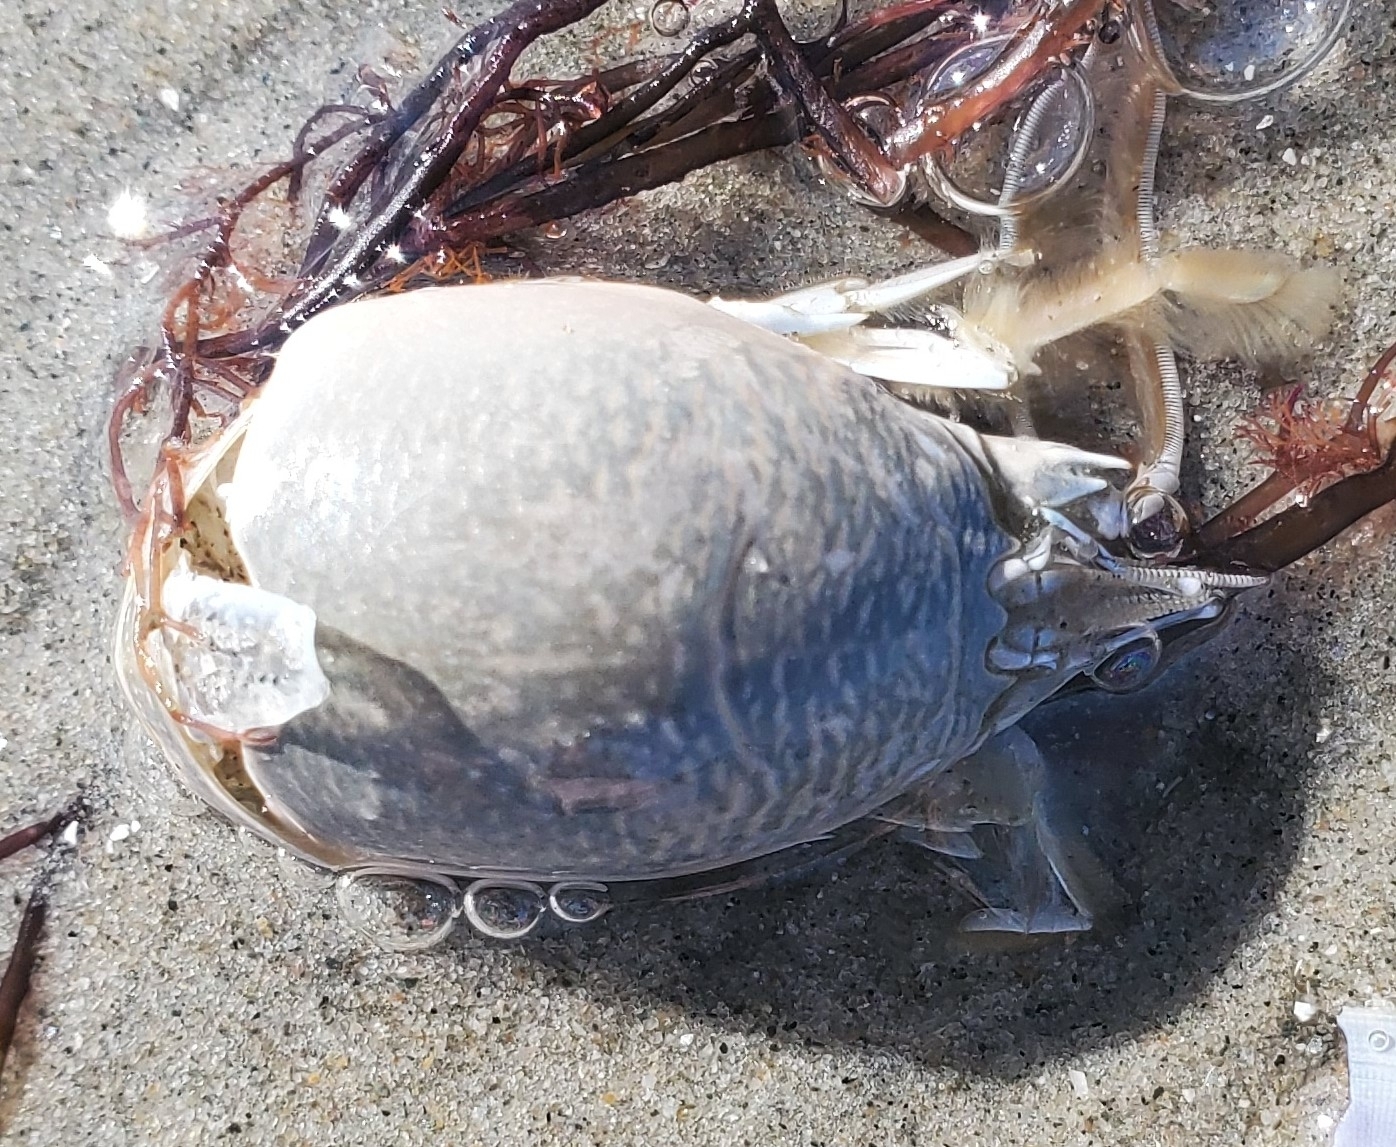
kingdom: Animalia
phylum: Arthropoda
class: Malacostraca
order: Decapoda
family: Hippidae
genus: Emerita
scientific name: Emerita talpoida
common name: Atlantic sand crab
